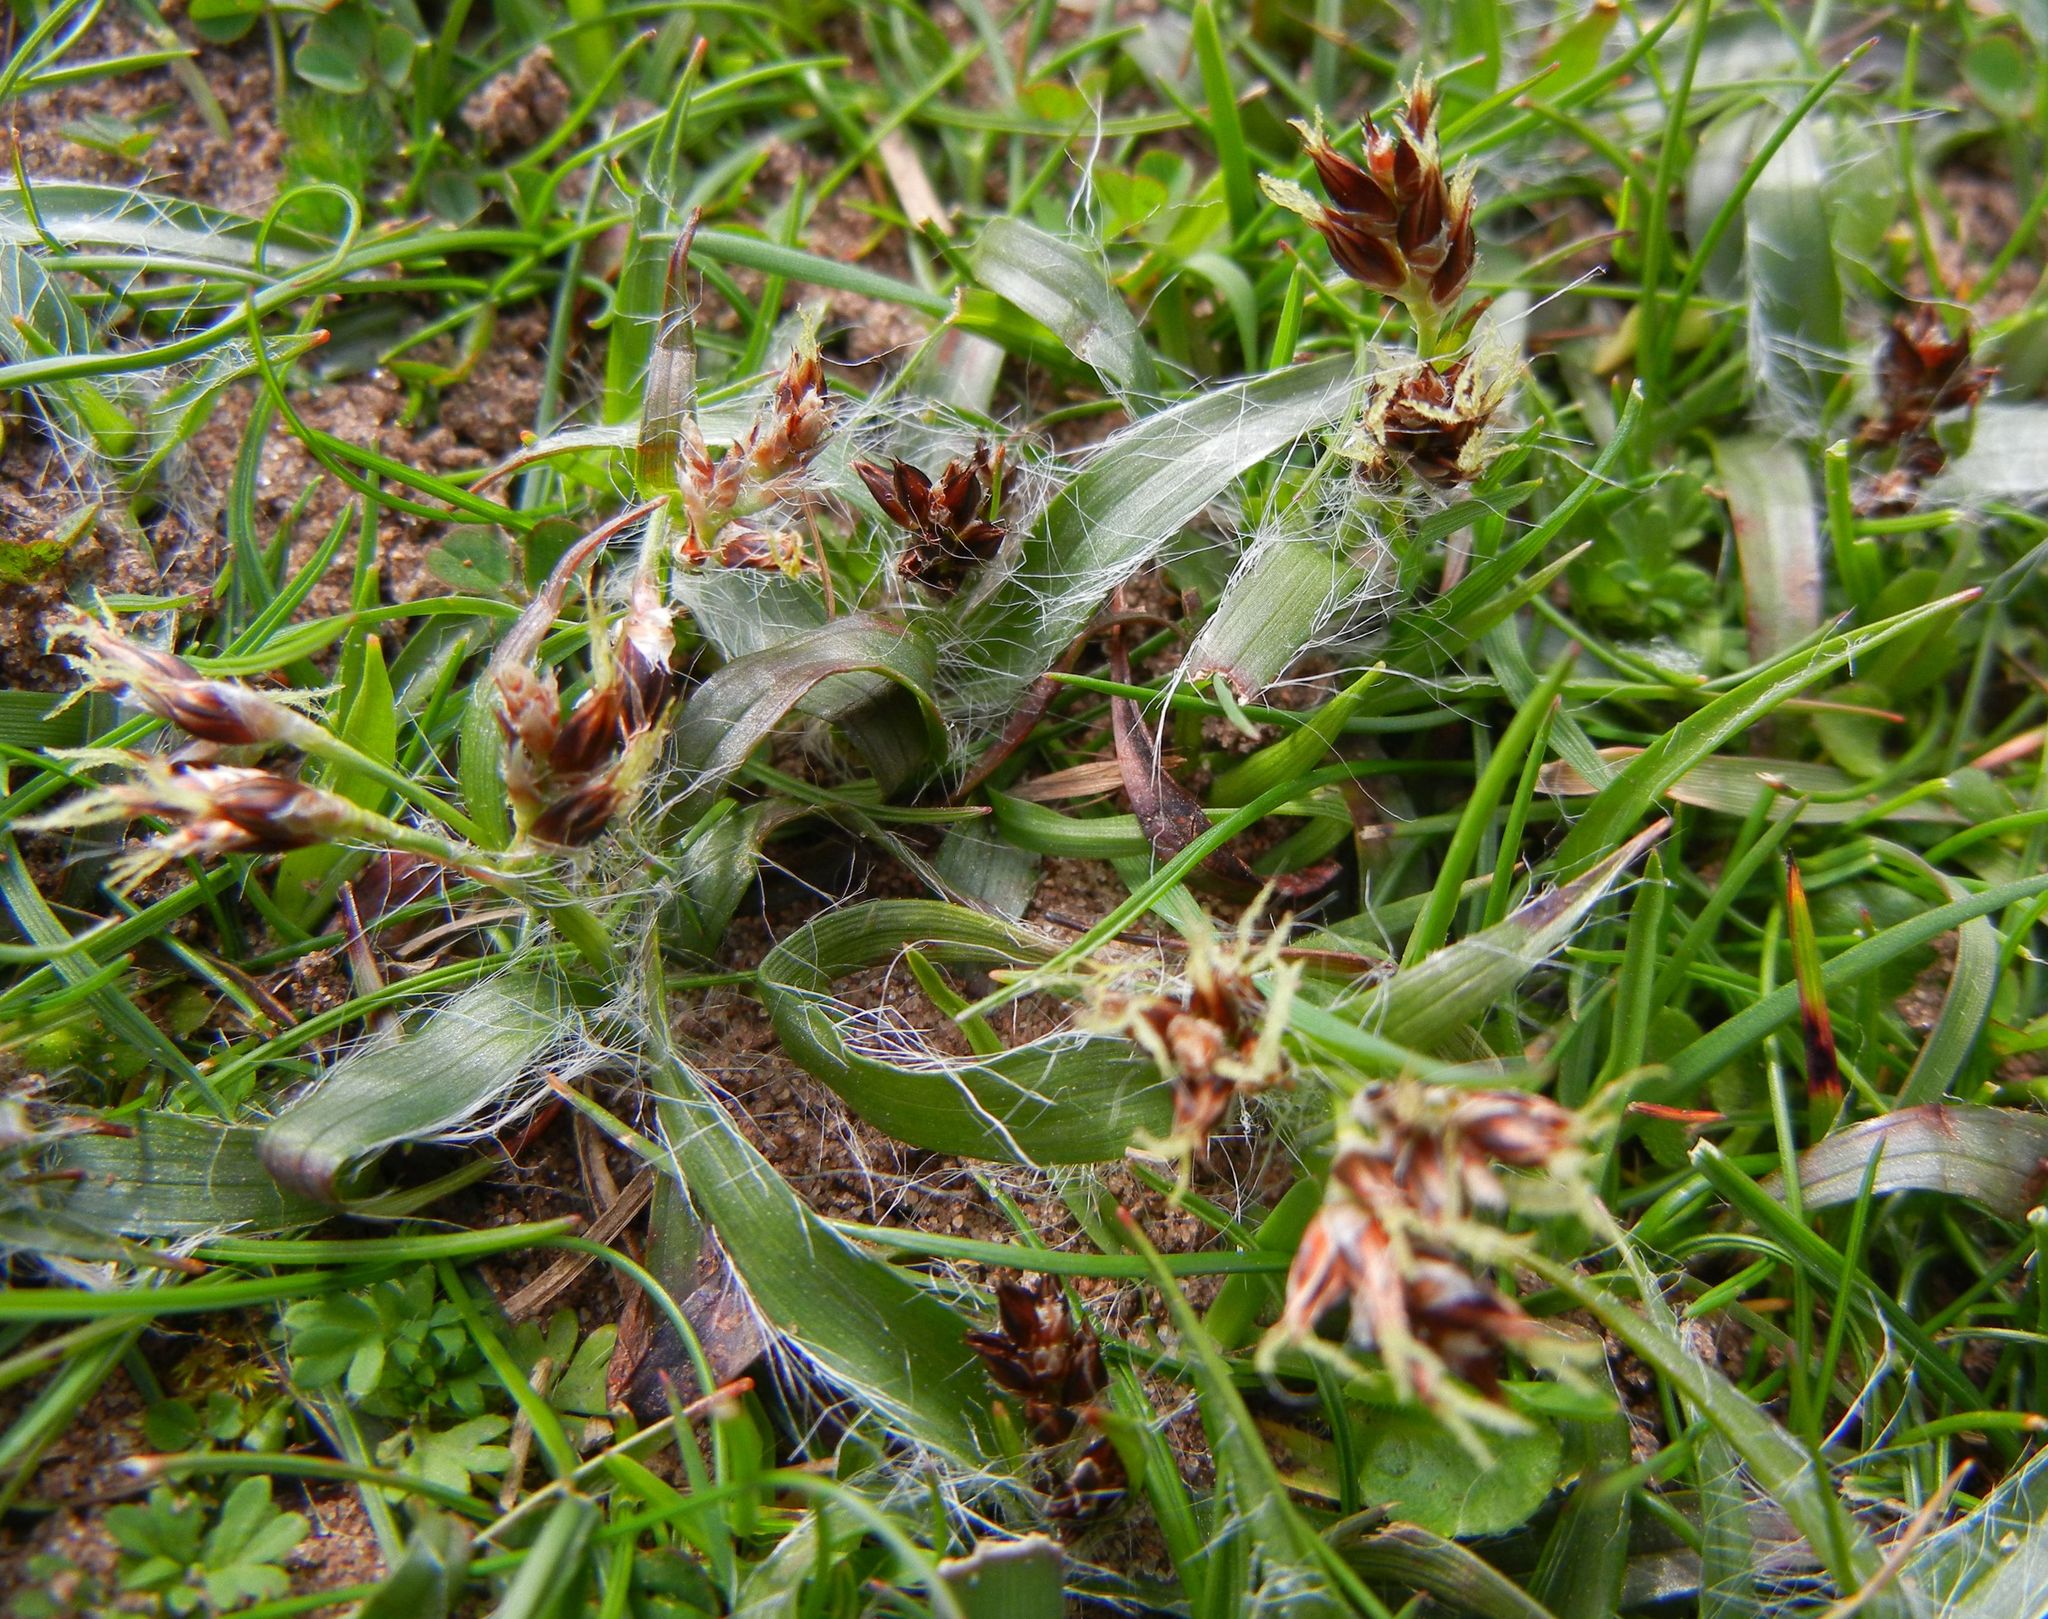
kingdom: Plantae
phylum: Tracheophyta
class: Liliopsida
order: Poales
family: Juncaceae
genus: Luzula
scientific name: Luzula campestris
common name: Field wood-rush
